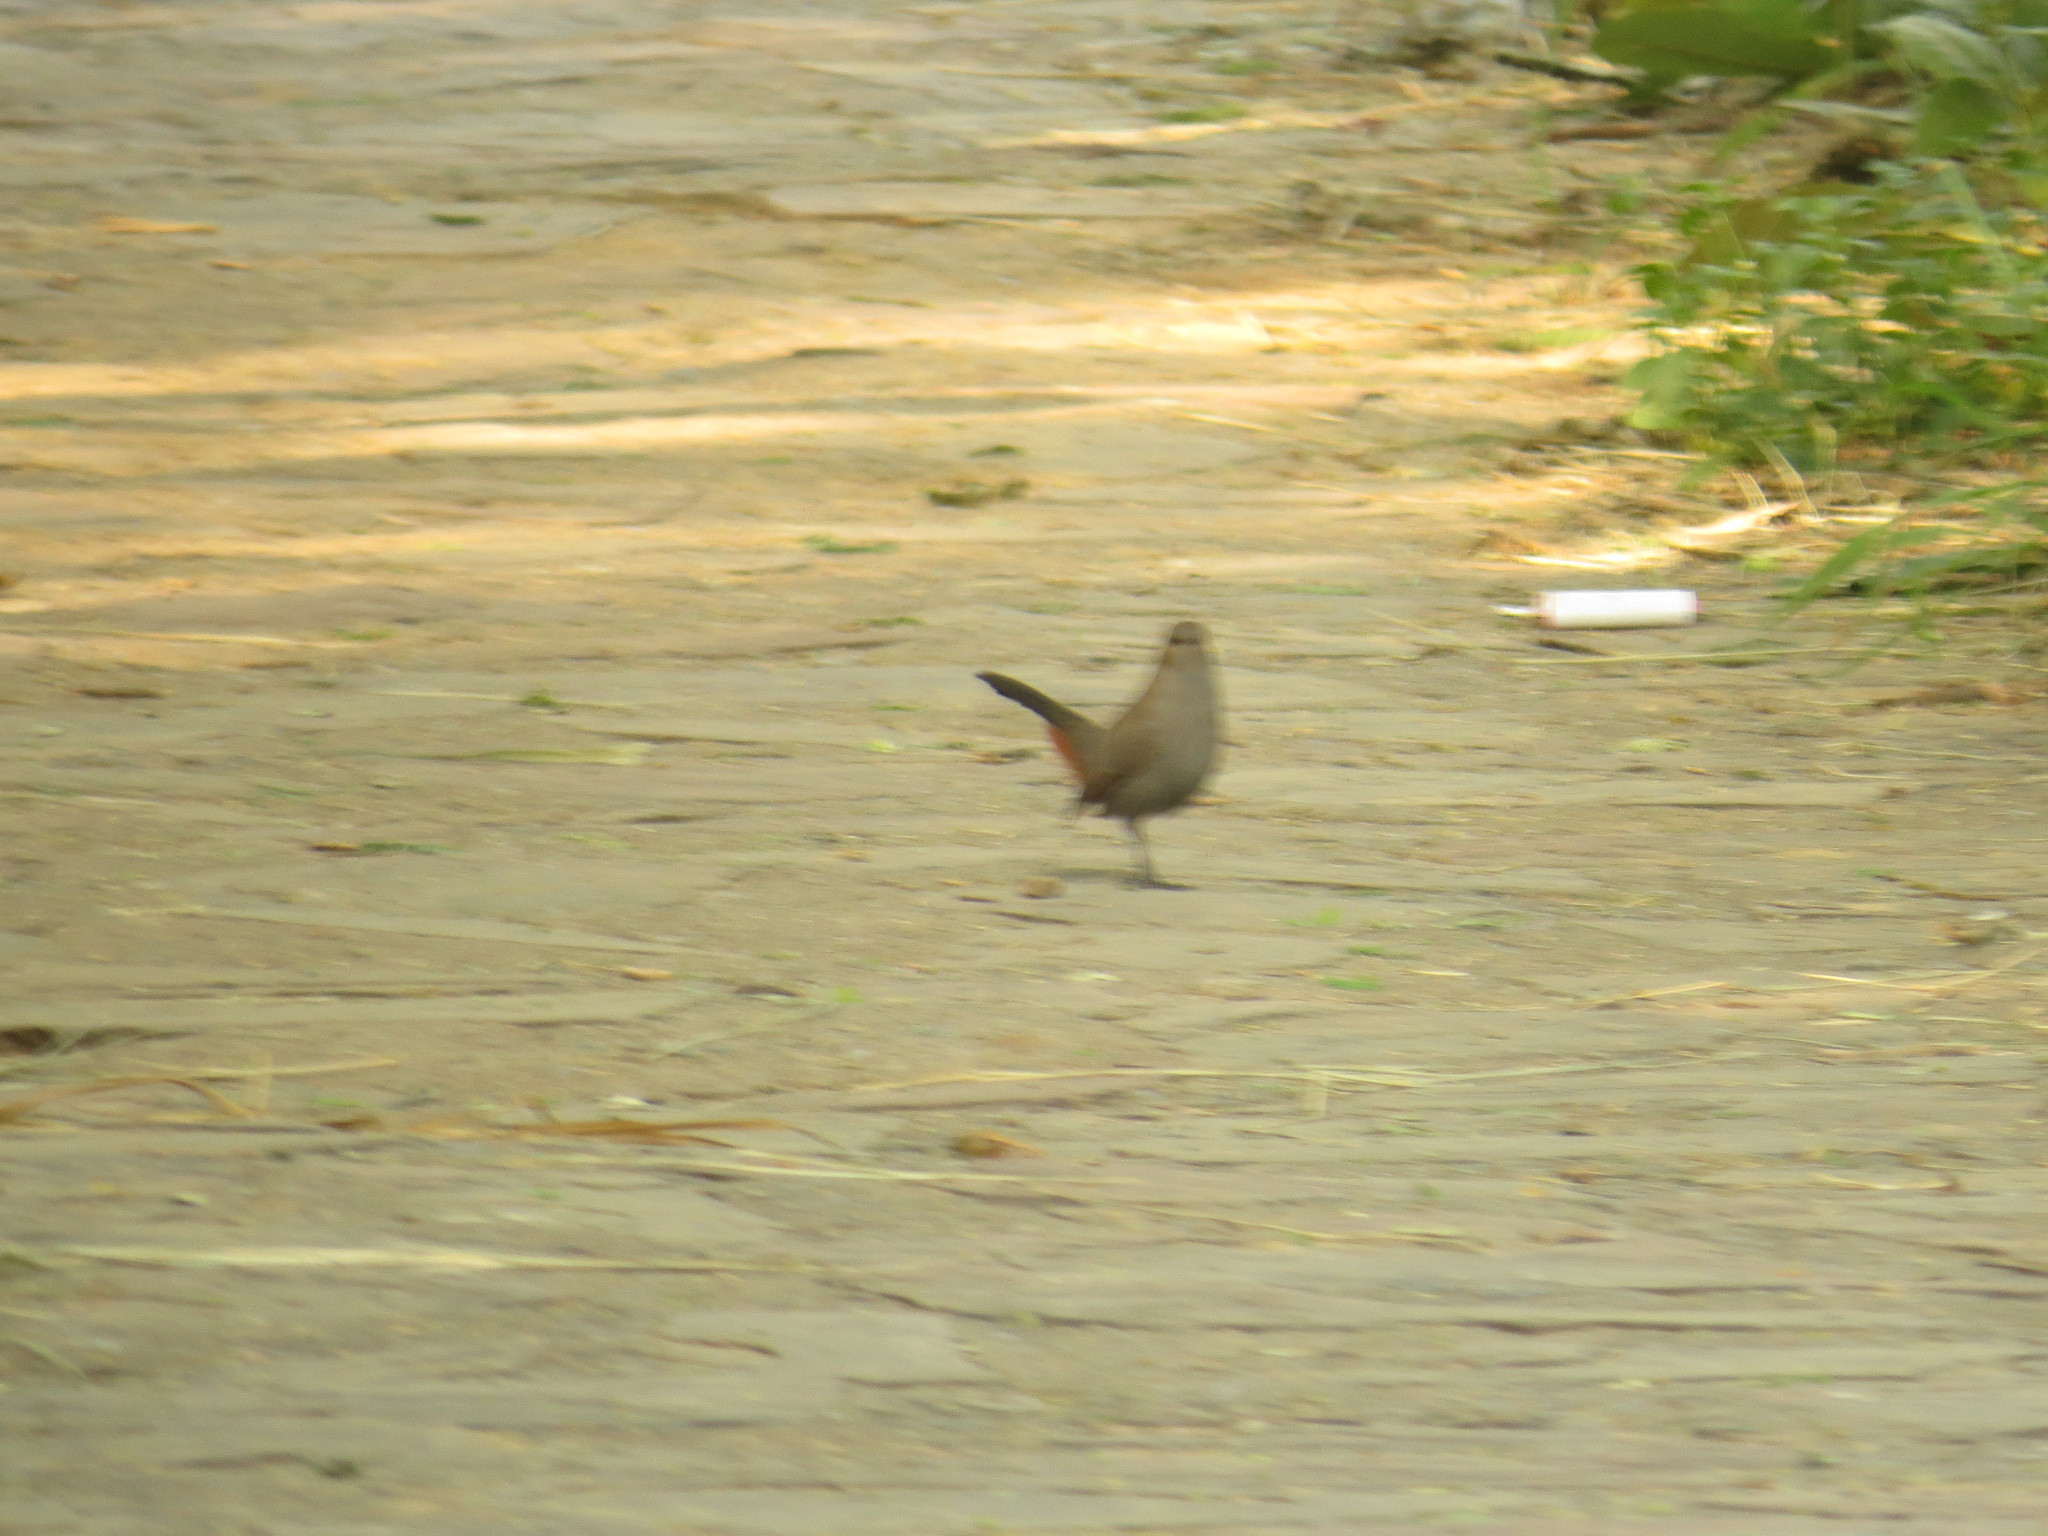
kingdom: Animalia
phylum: Chordata
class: Aves
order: Passeriformes
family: Muscicapidae
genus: Saxicoloides
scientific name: Saxicoloides fulicatus
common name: Indian robin
